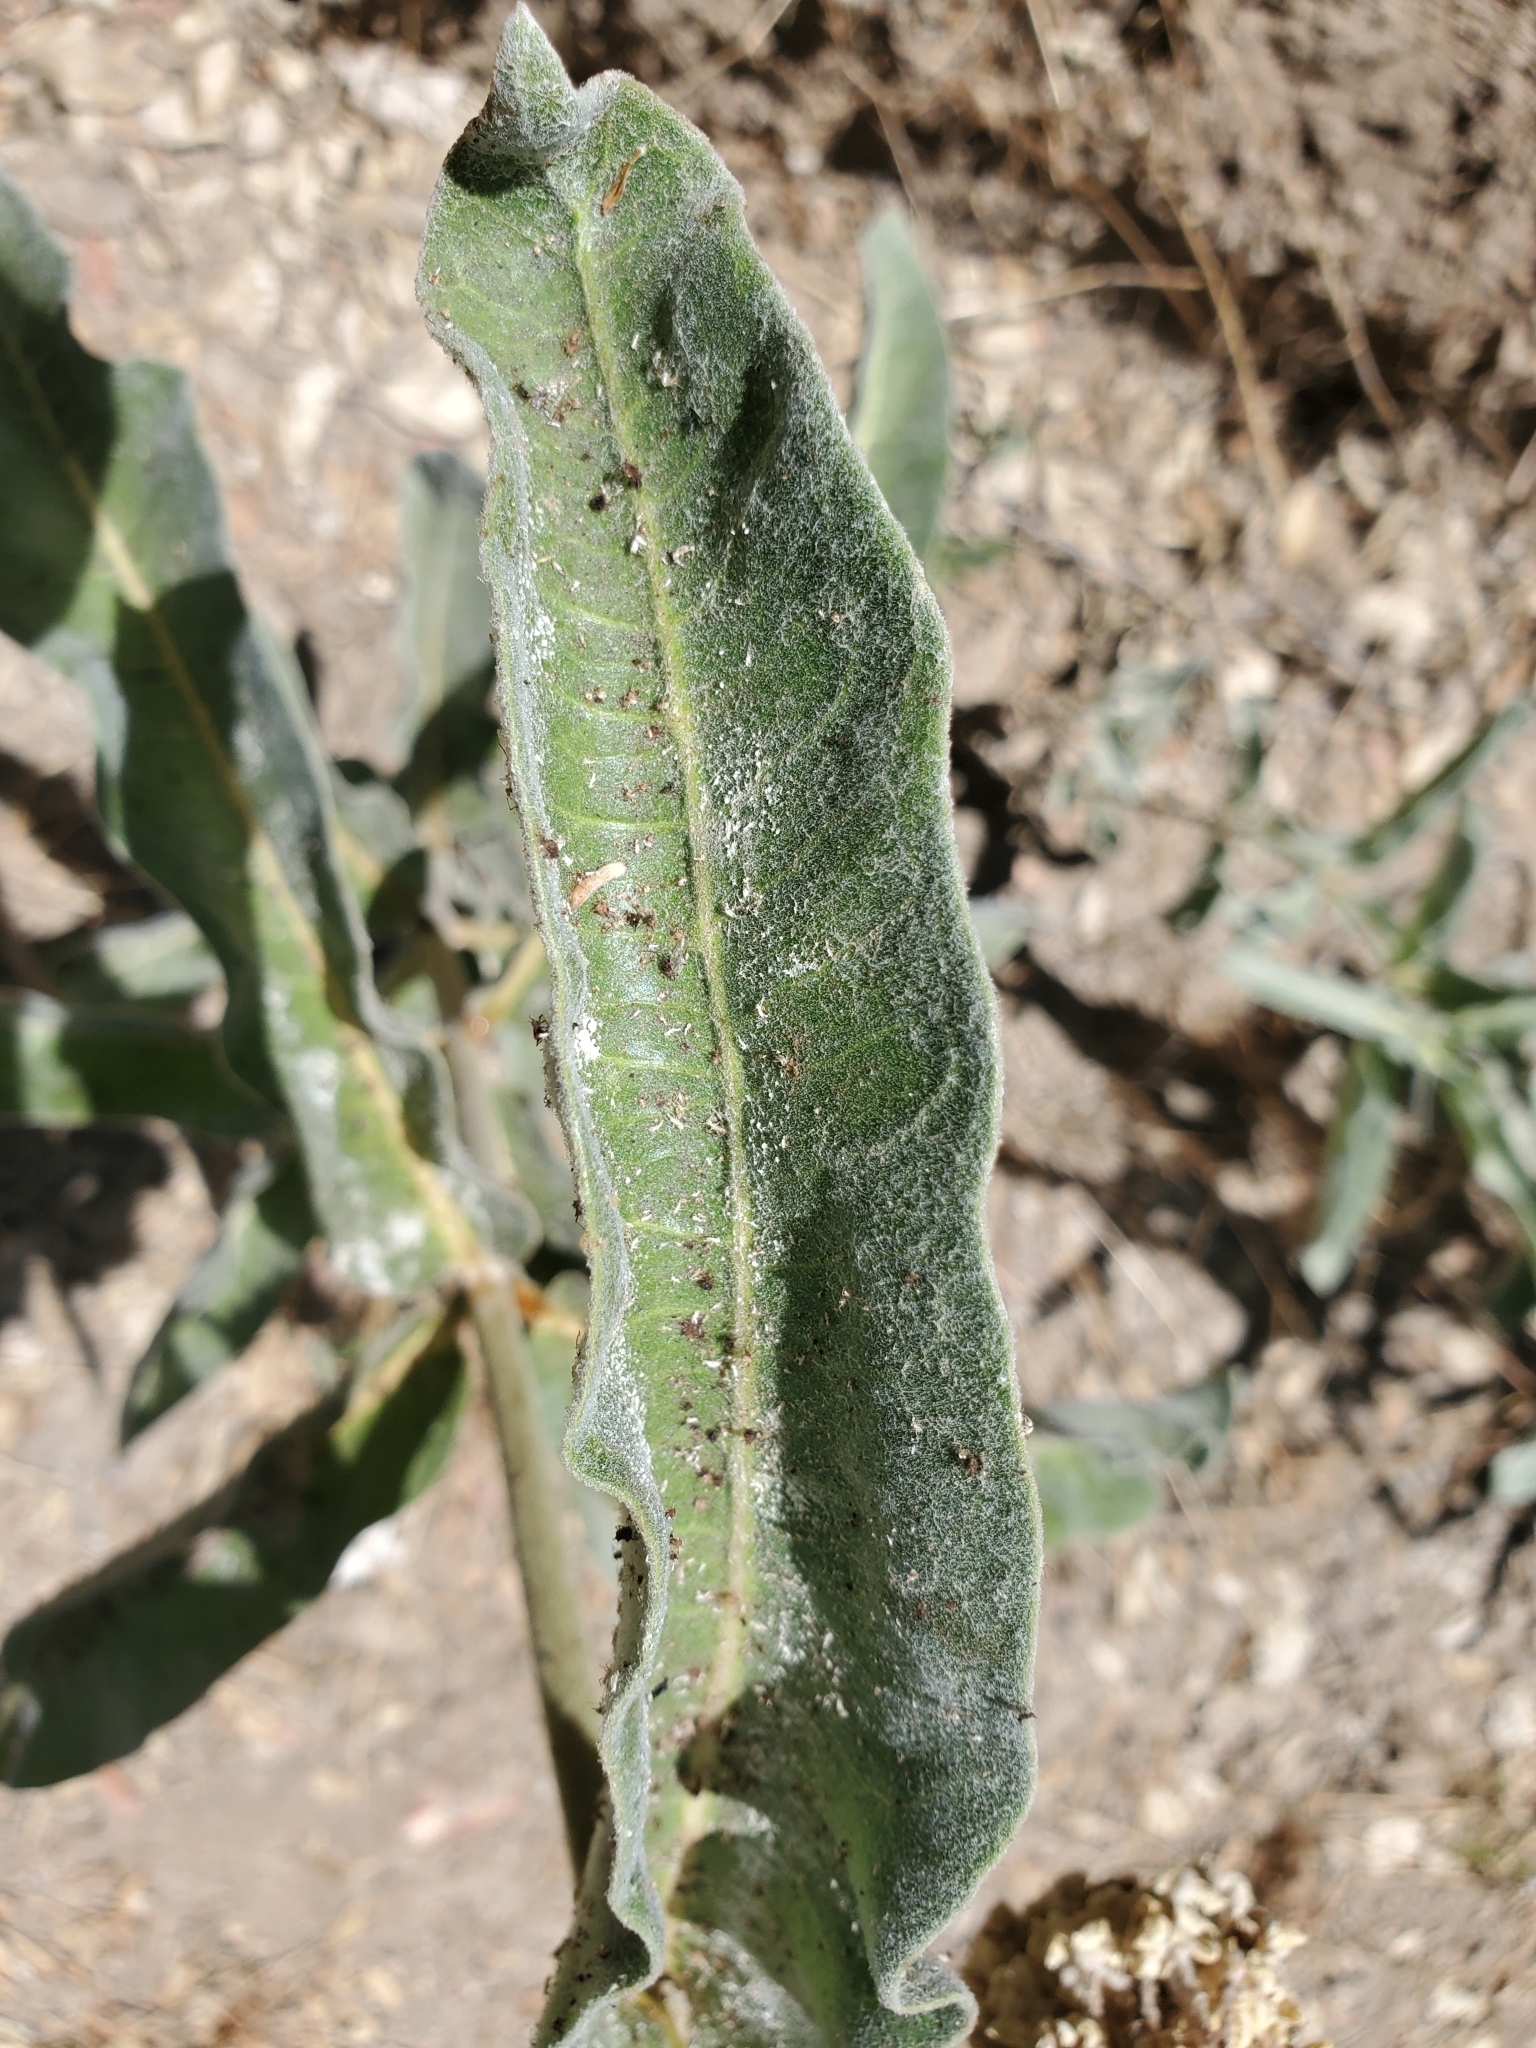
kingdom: Plantae
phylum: Tracheophyta
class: Magnoliopsida
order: Gentianales
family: Apocynaceae
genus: Asclepias
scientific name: Asclepias eriocarpa
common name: Indian milkweed
